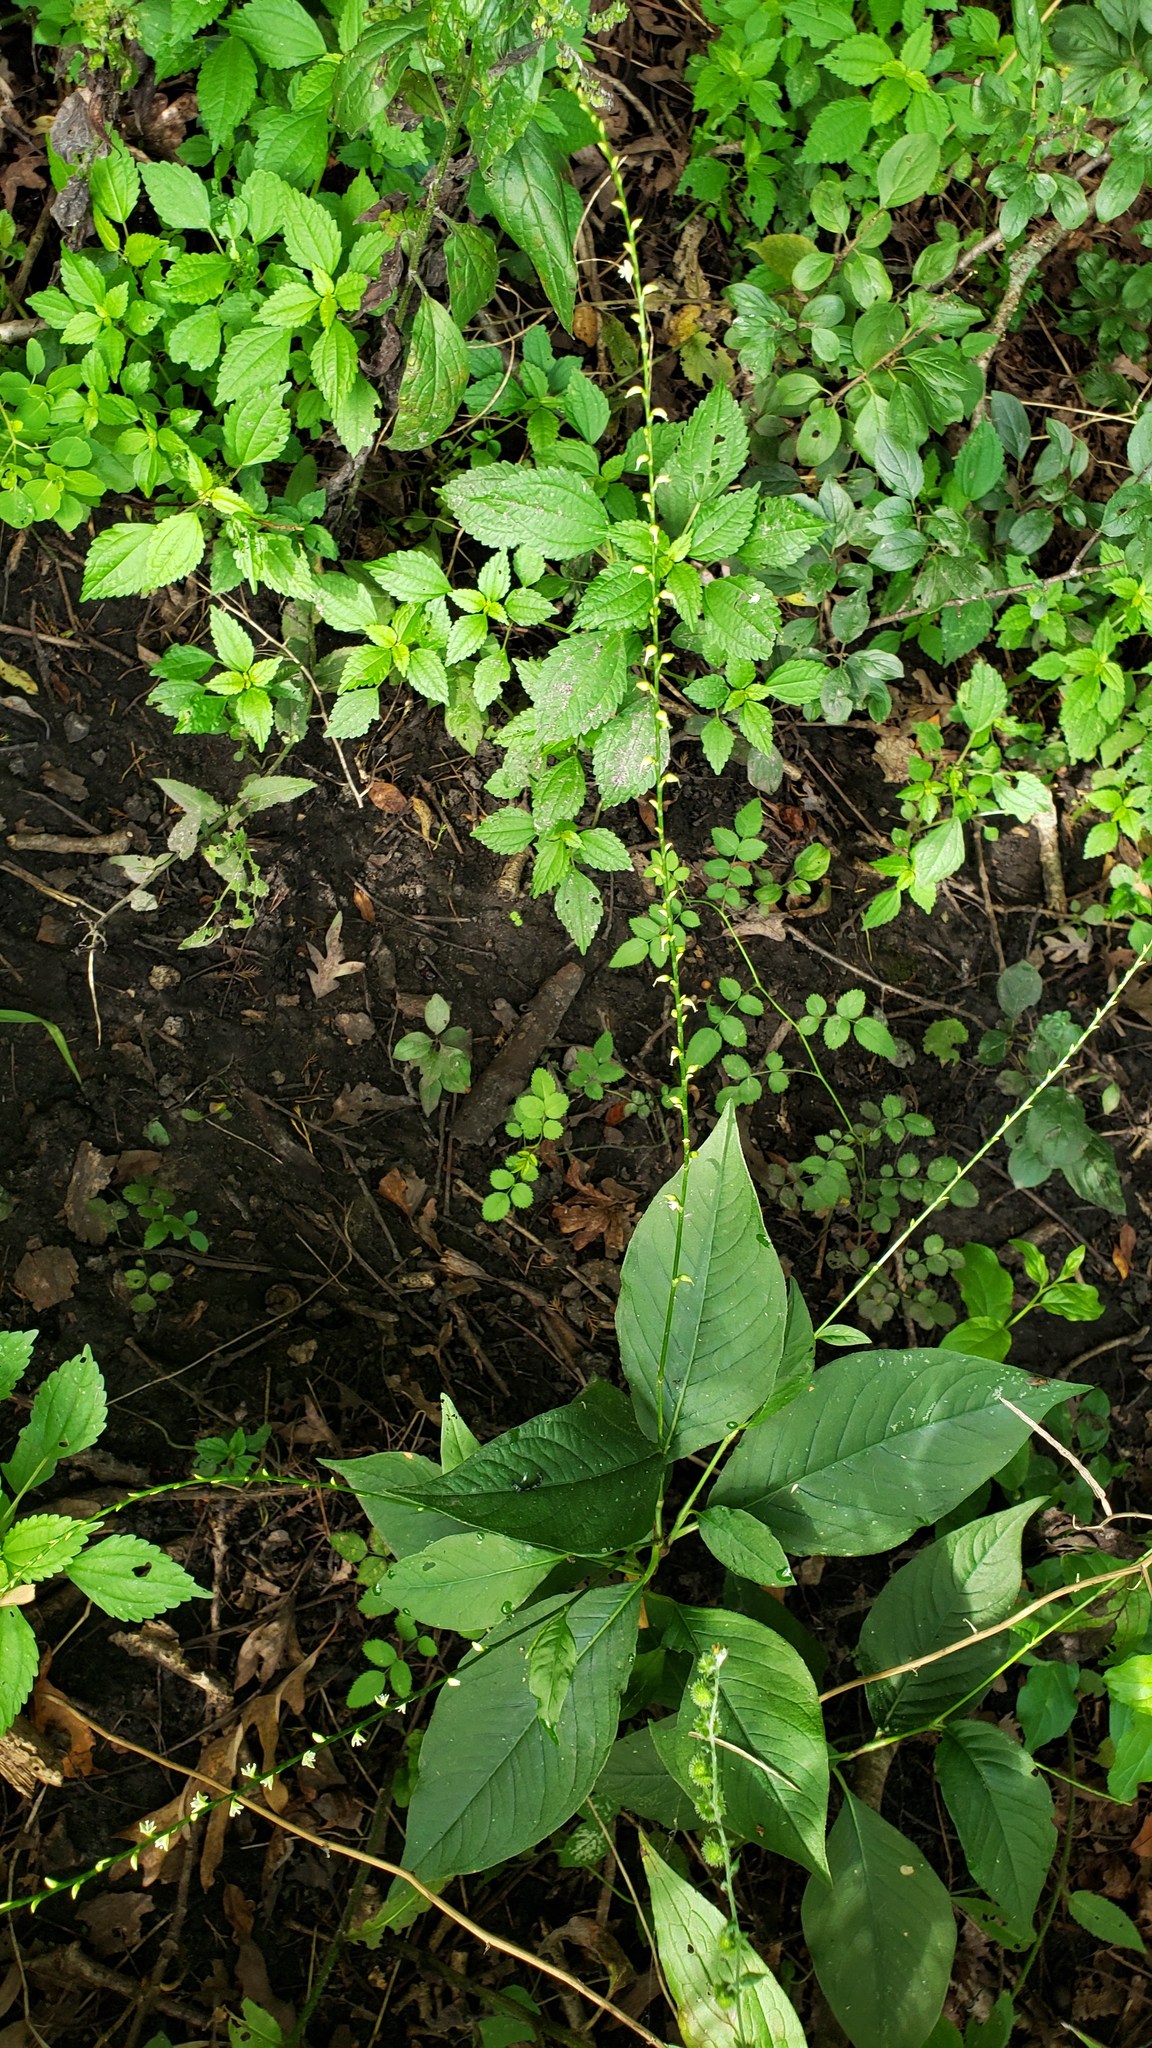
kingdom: Plantae
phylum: Tracheophyta
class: Magnoliopsida
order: Caryophyllales
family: Polygonaceae
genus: Persicaria
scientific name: Persicaria virginiana
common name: Jumpseed
